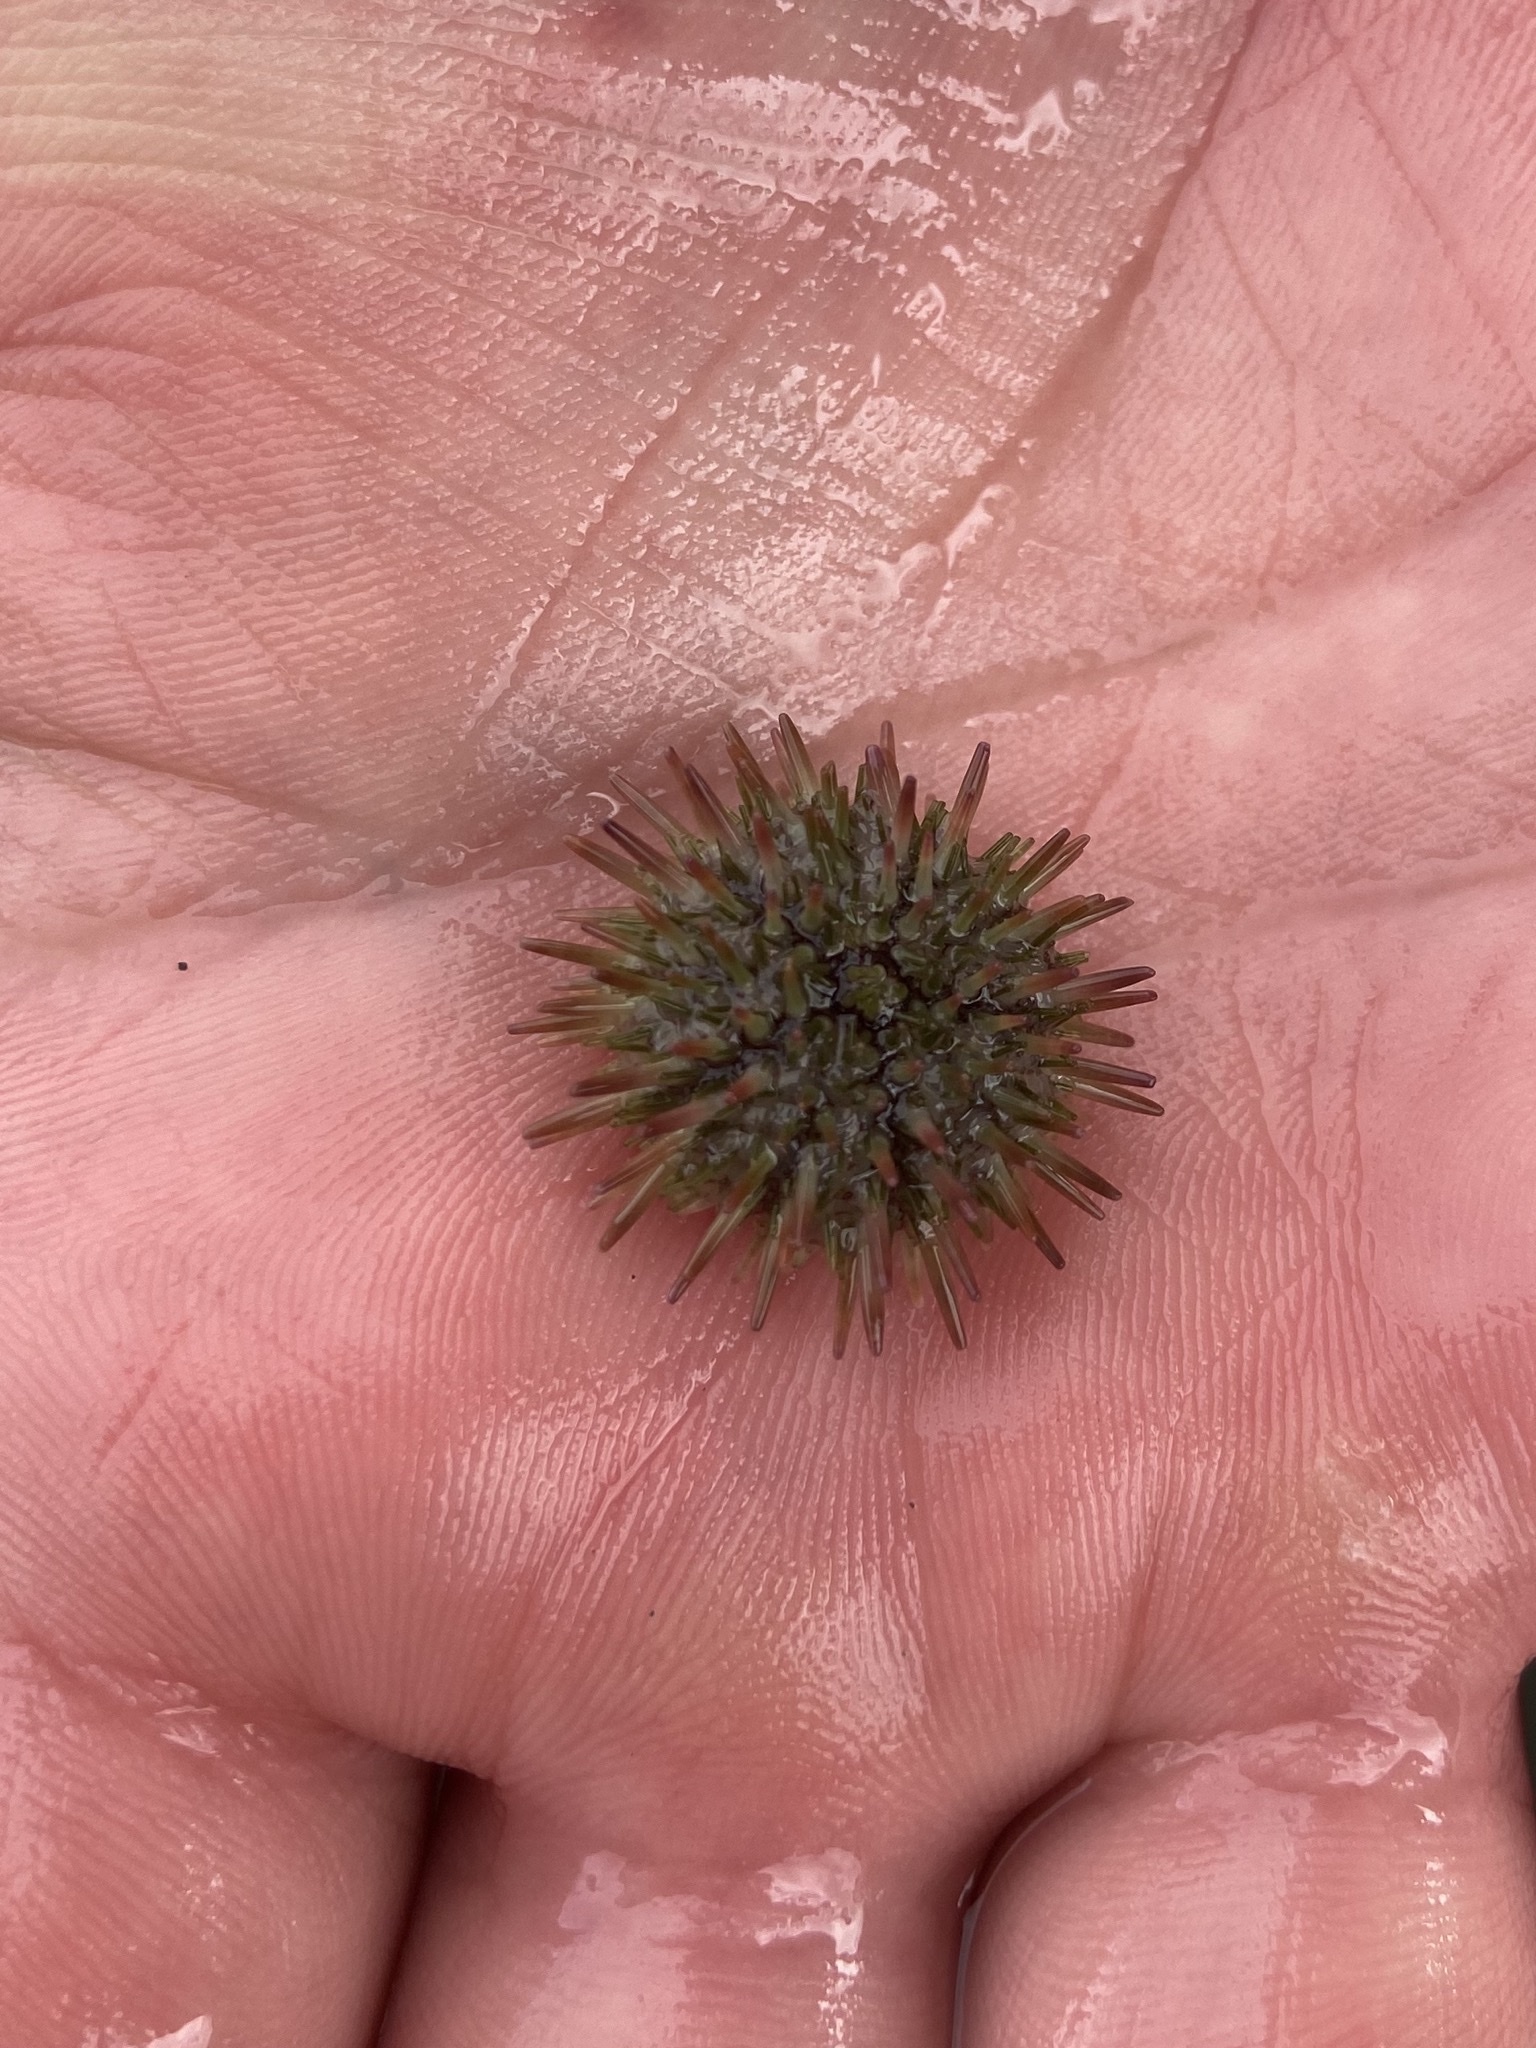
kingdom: Animalia
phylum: Echinodermata
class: Echinoidea
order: Camarodonta
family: Strongylocentrotidae
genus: Strongylocentrotus
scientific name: Strongylocentrotus purpuratus
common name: Purple sea urchin
